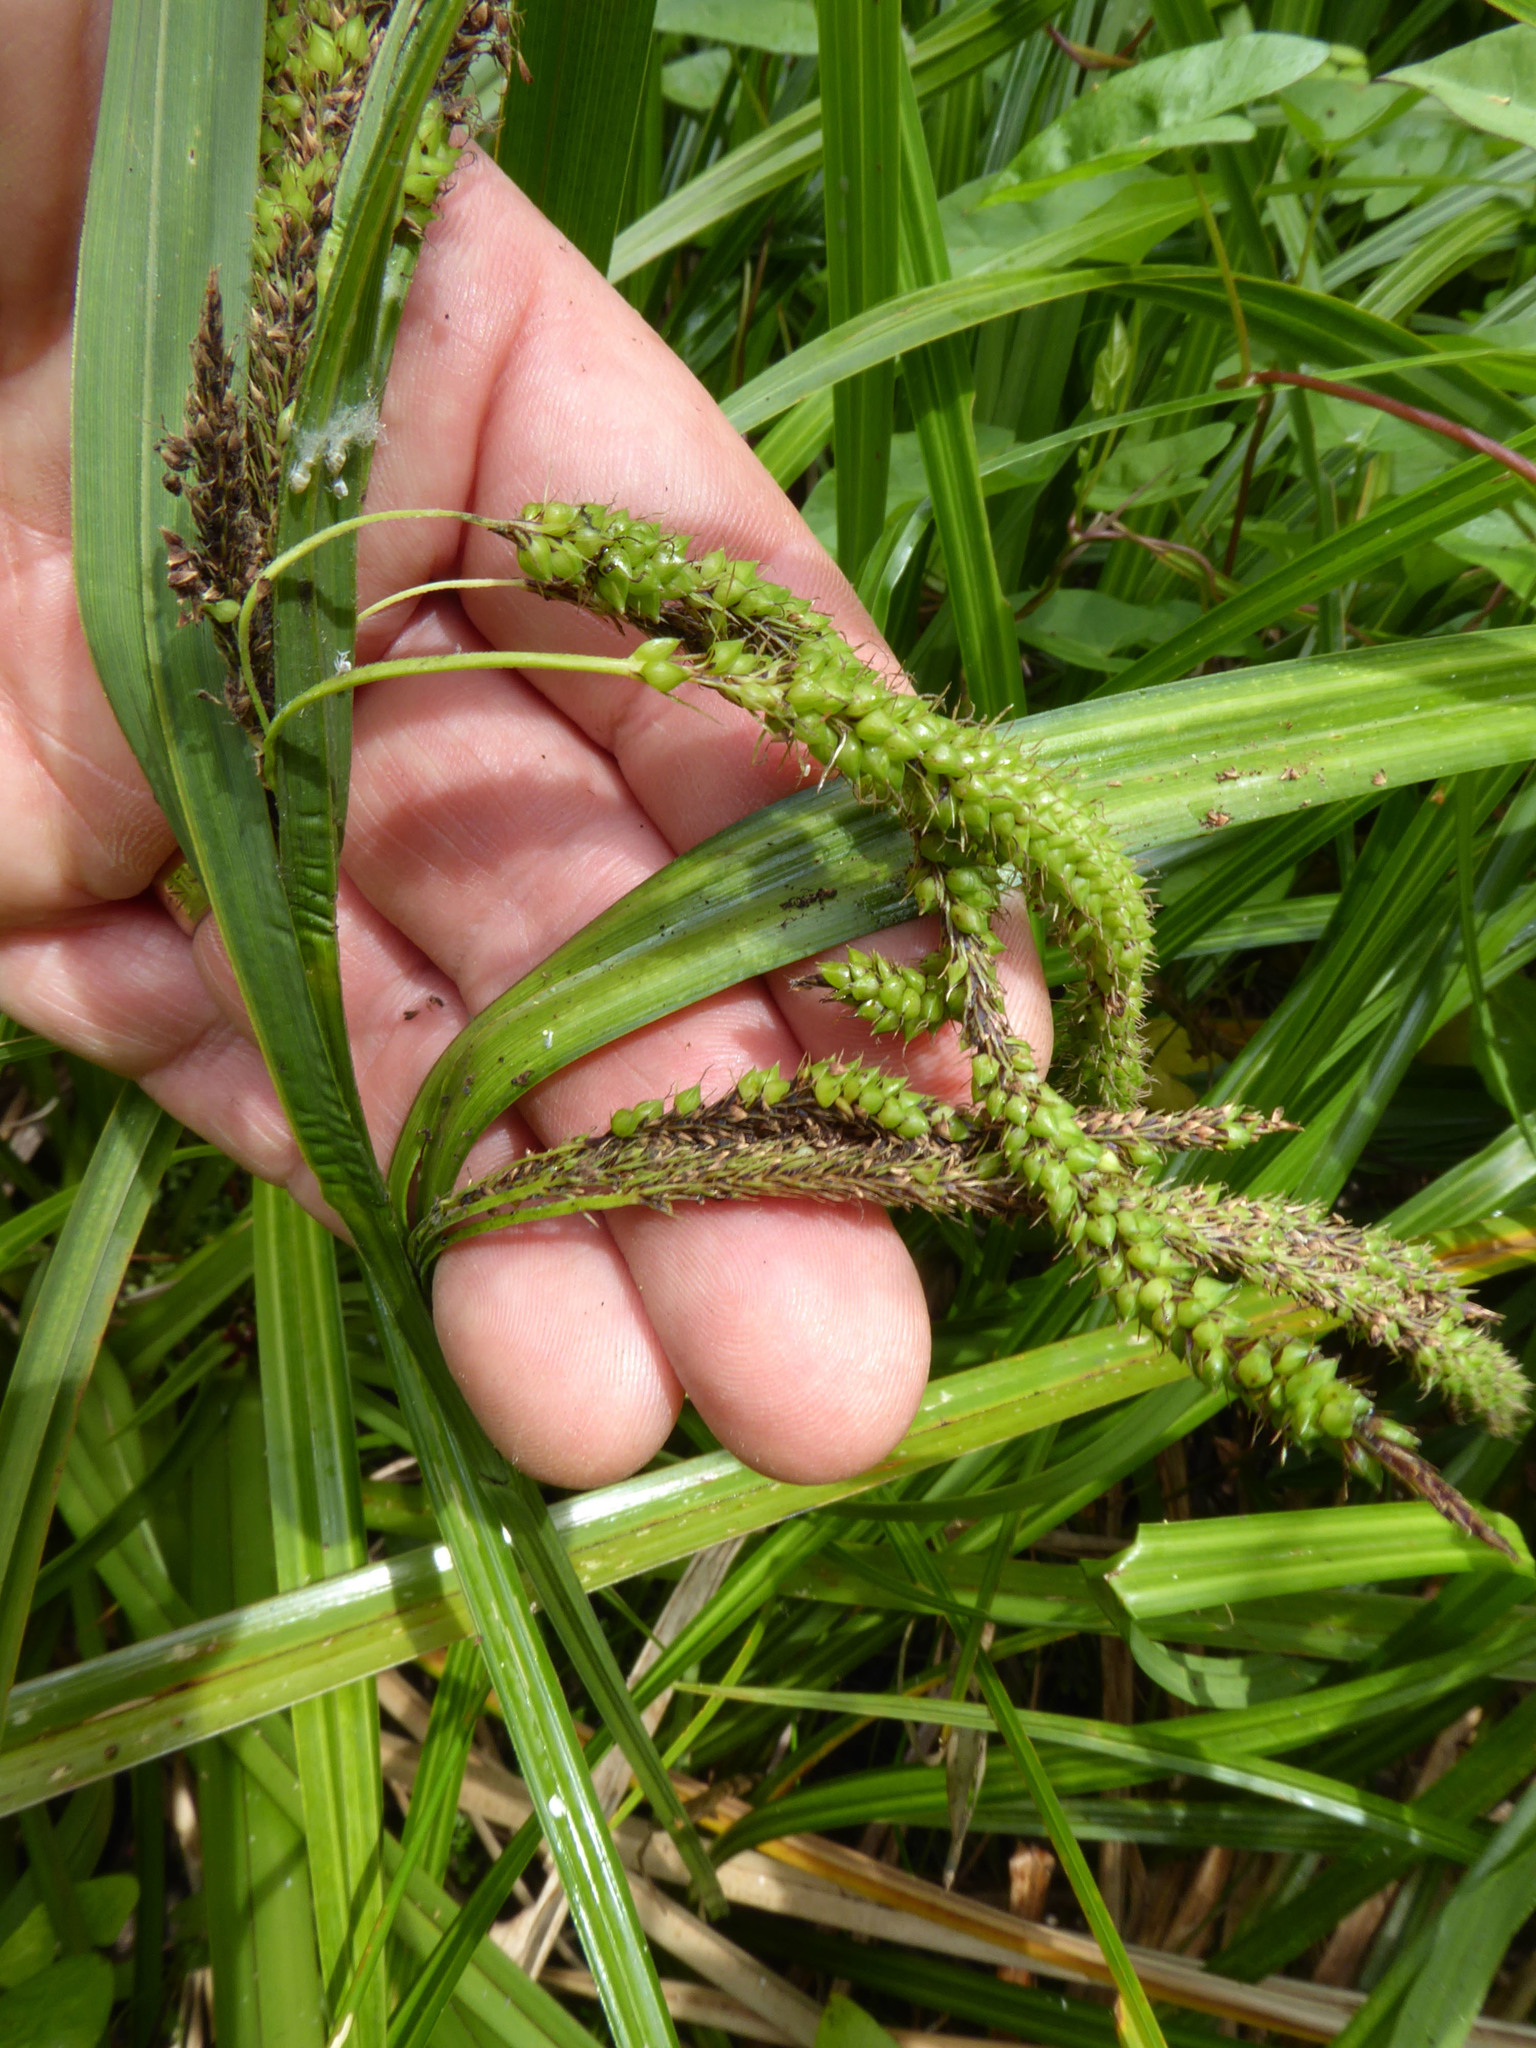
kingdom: Plantae
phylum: Tracheophyta
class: Liliopsida
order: Poales
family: Cyperaceae
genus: Carex
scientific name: Carex geminata
